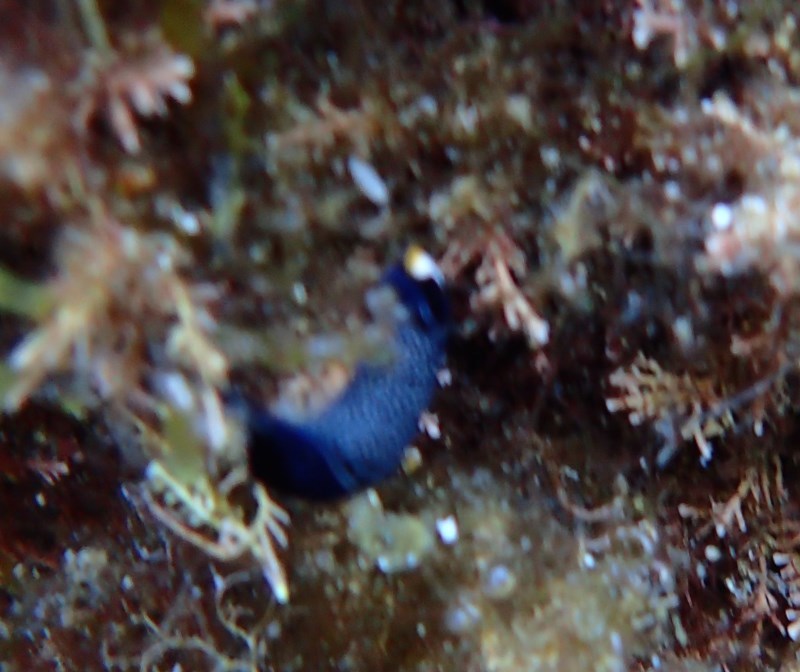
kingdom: Animalia
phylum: Mollusca
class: Gastropoda
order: Cephalaspidea
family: Aglajidae
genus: Mariaglaja
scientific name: Mariaglaja inornata
